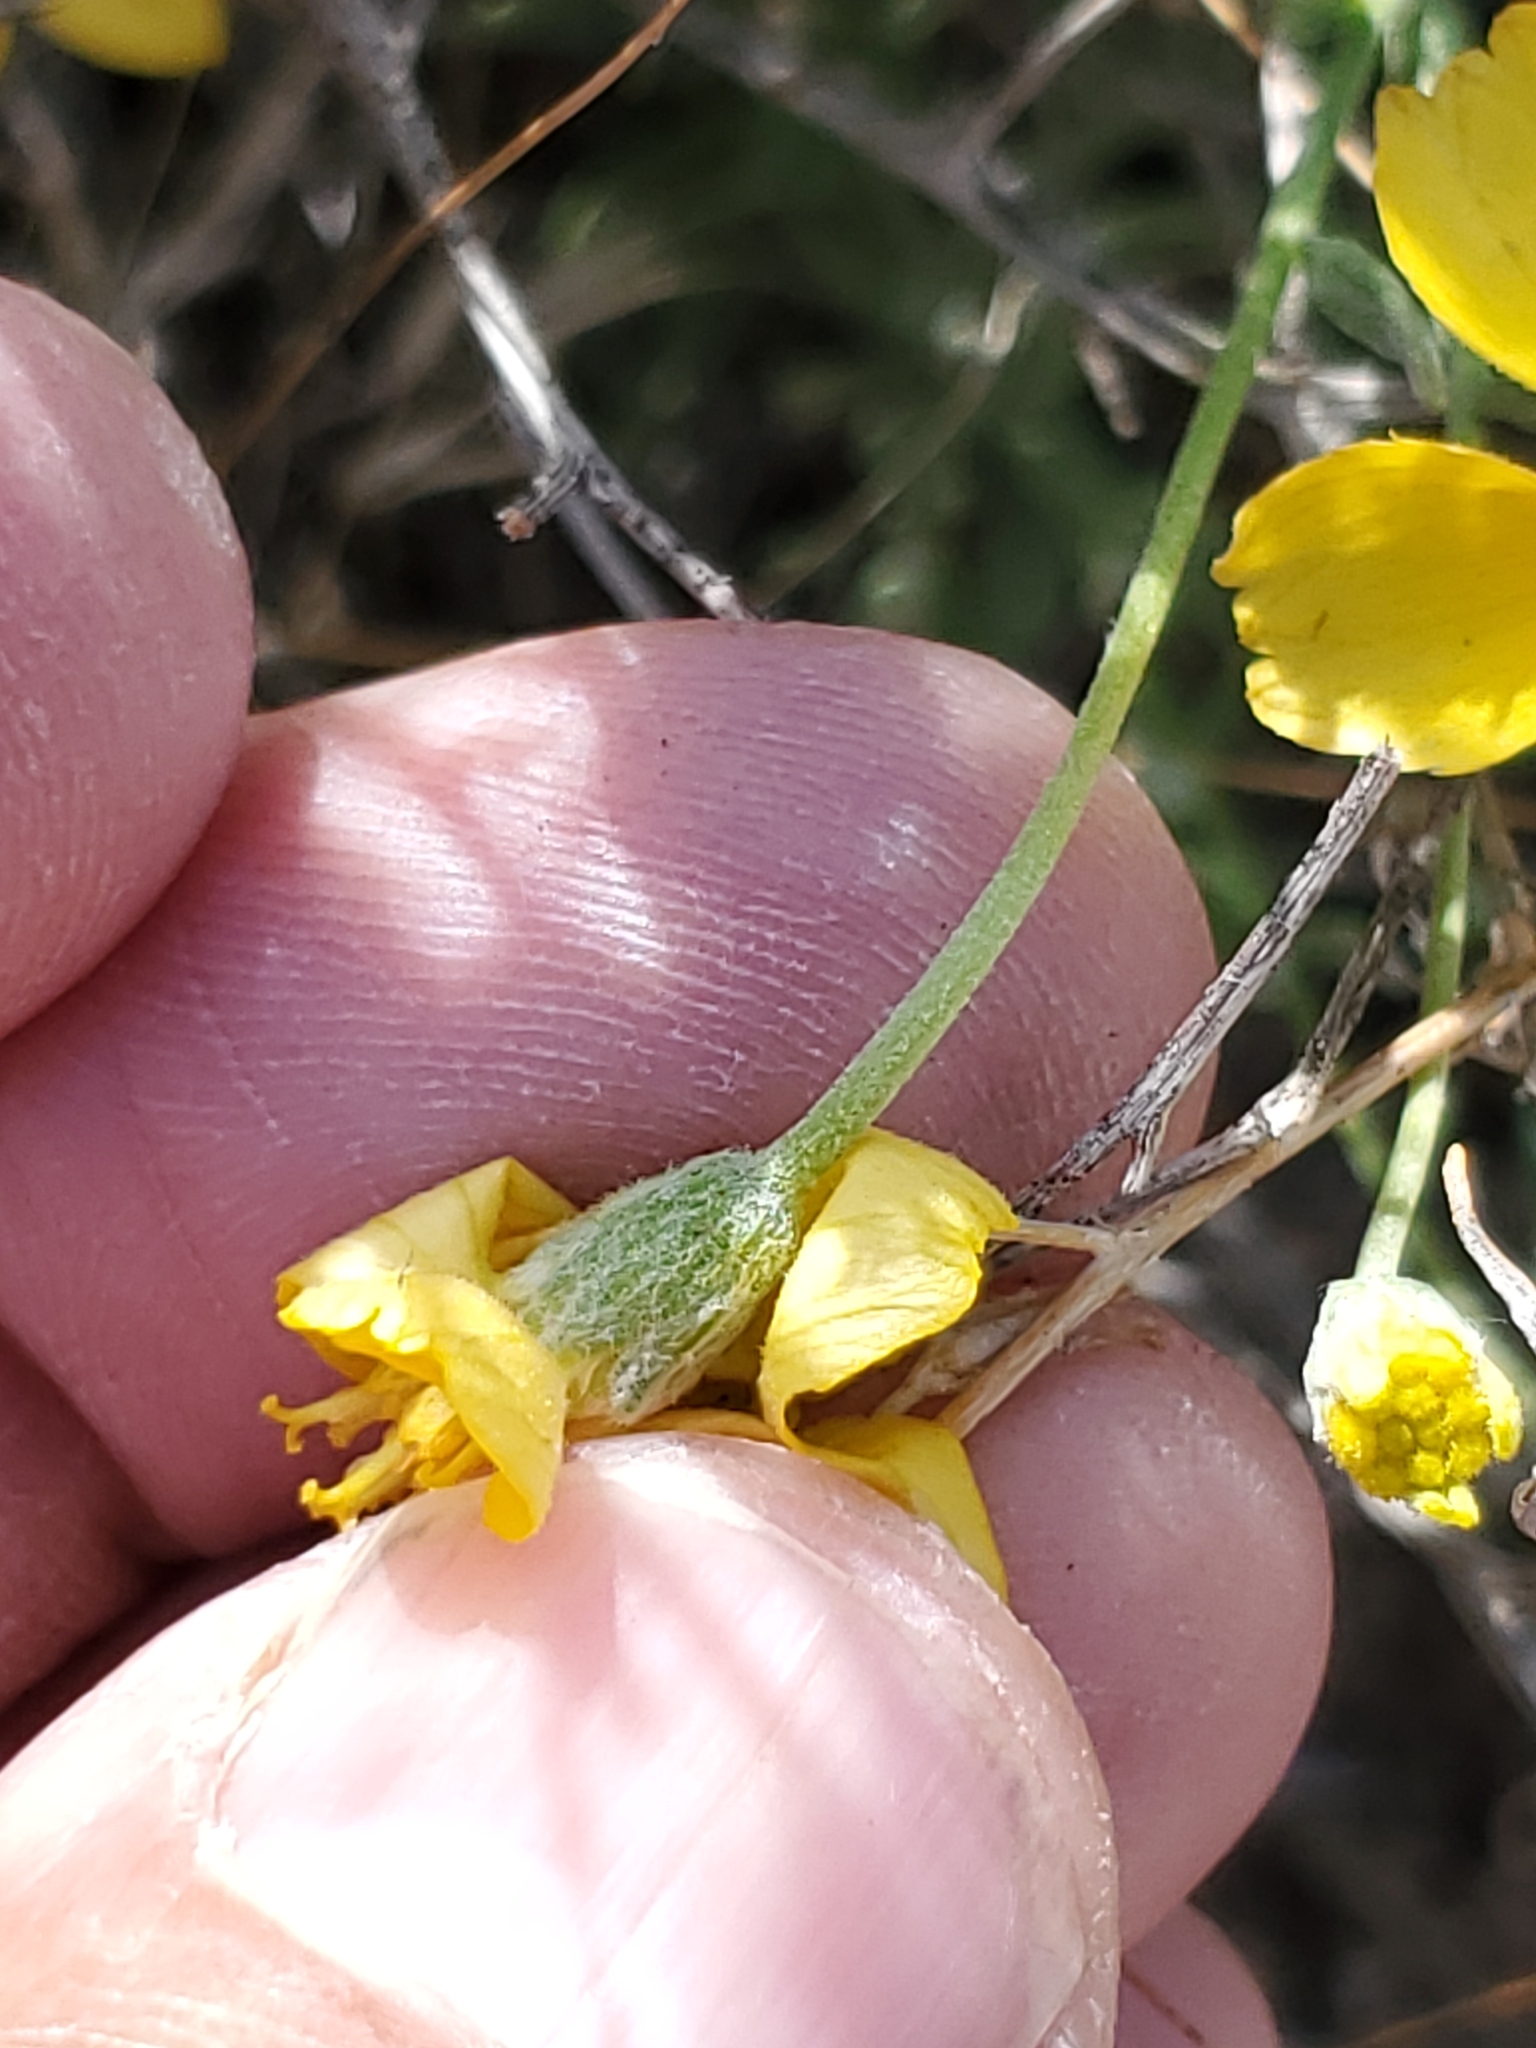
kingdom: Plantae
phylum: Tracheophyta
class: Magnoliopsida
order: Asterales
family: Asteraceae
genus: Psilostrophe
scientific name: Psilostrophe cooperi
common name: White-stem paper-flower
